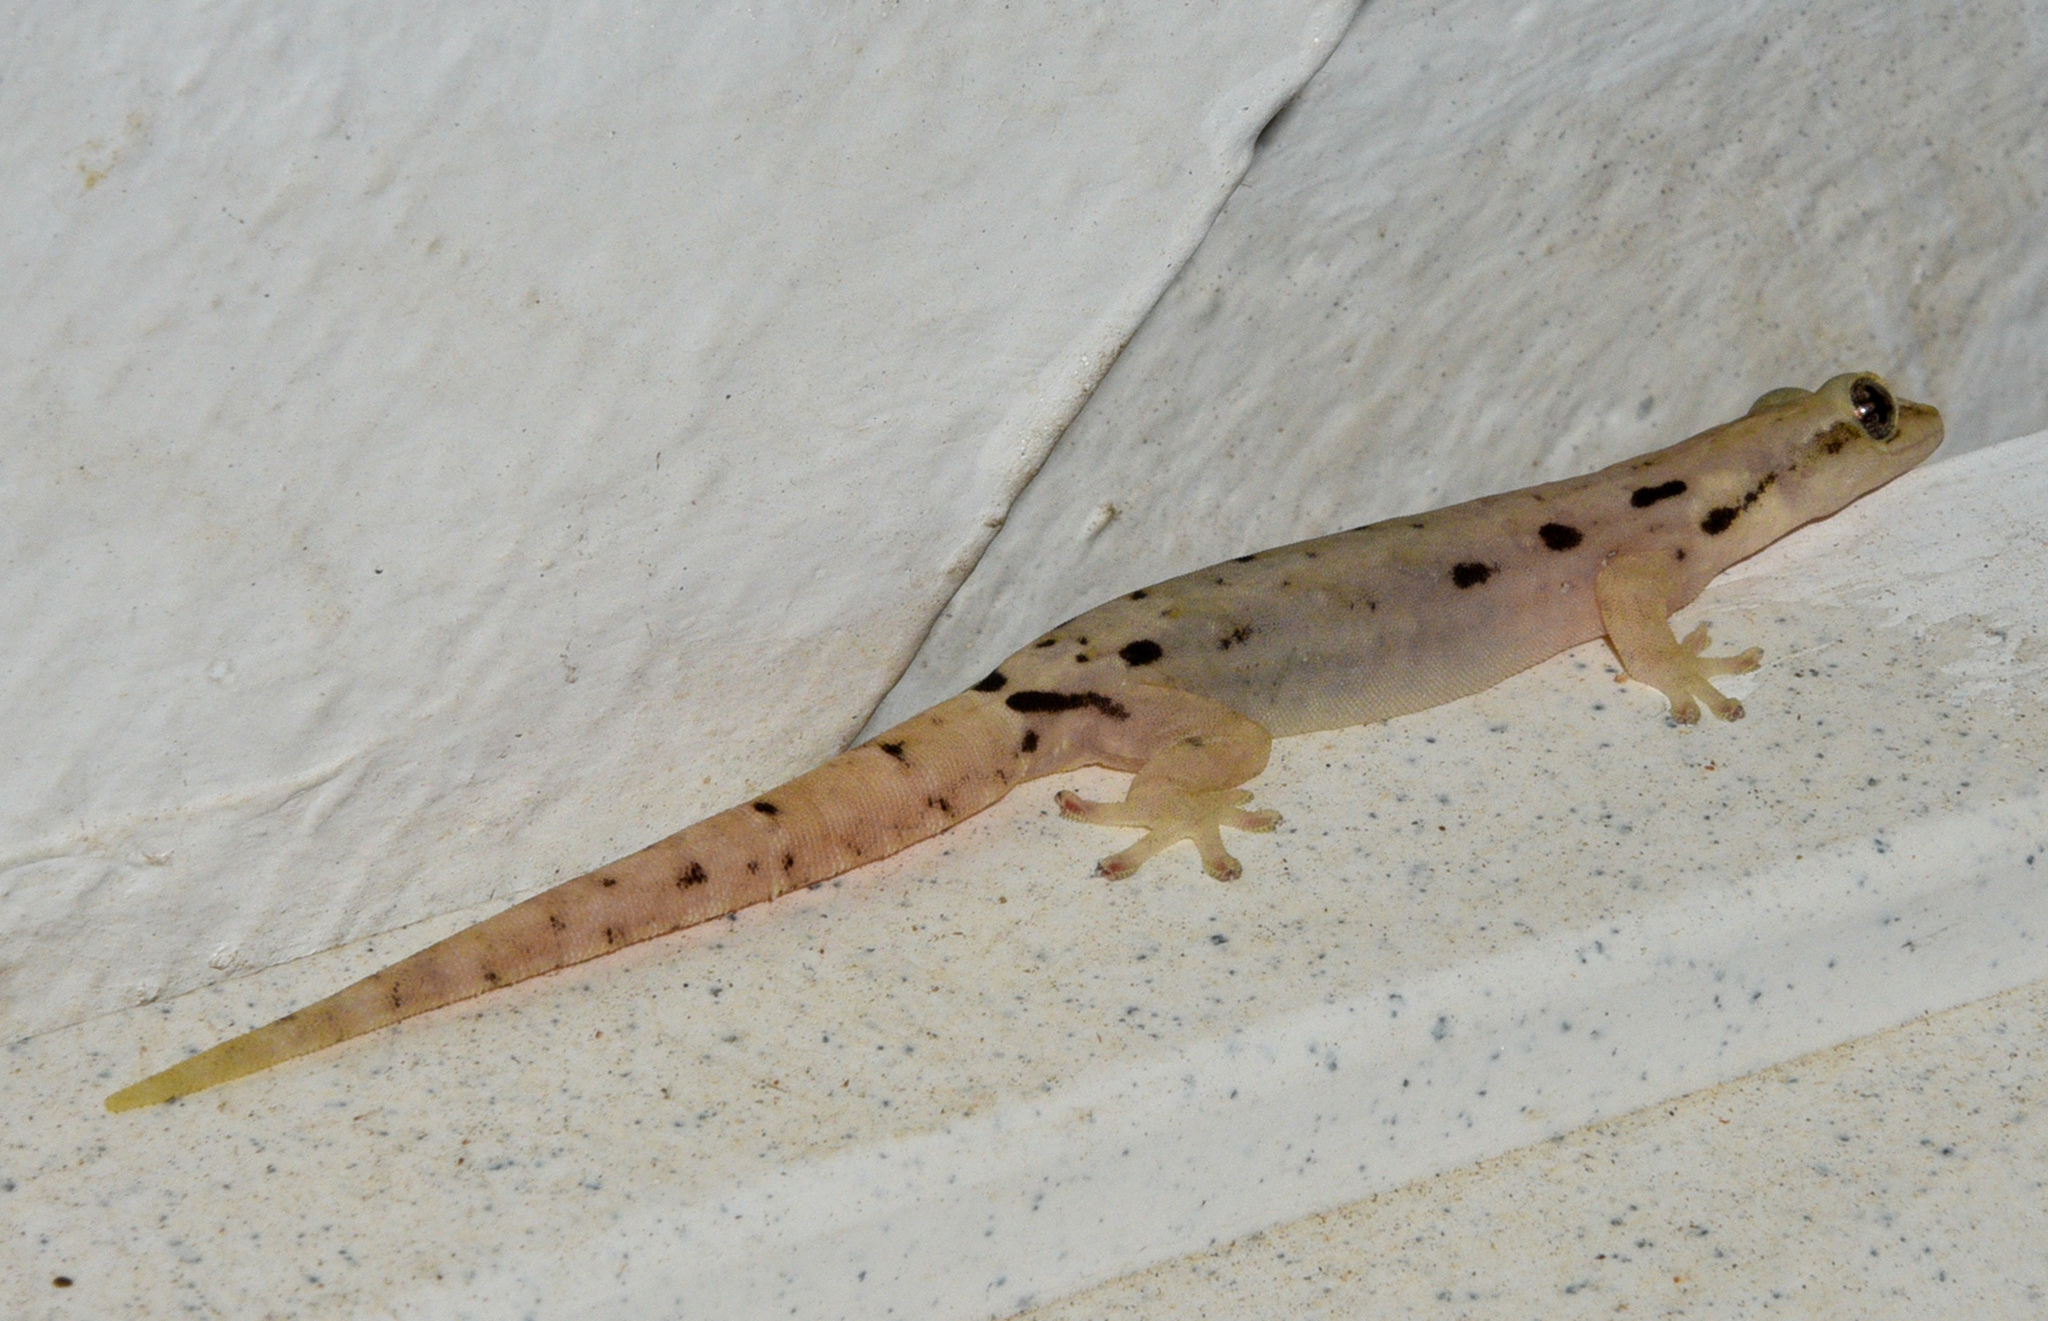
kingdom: Animalia
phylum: Chordata
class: Squamata
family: Gekkonidae
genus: Lepidodactylus
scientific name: Lepidodactylus lugubris
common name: Mourning gecko
